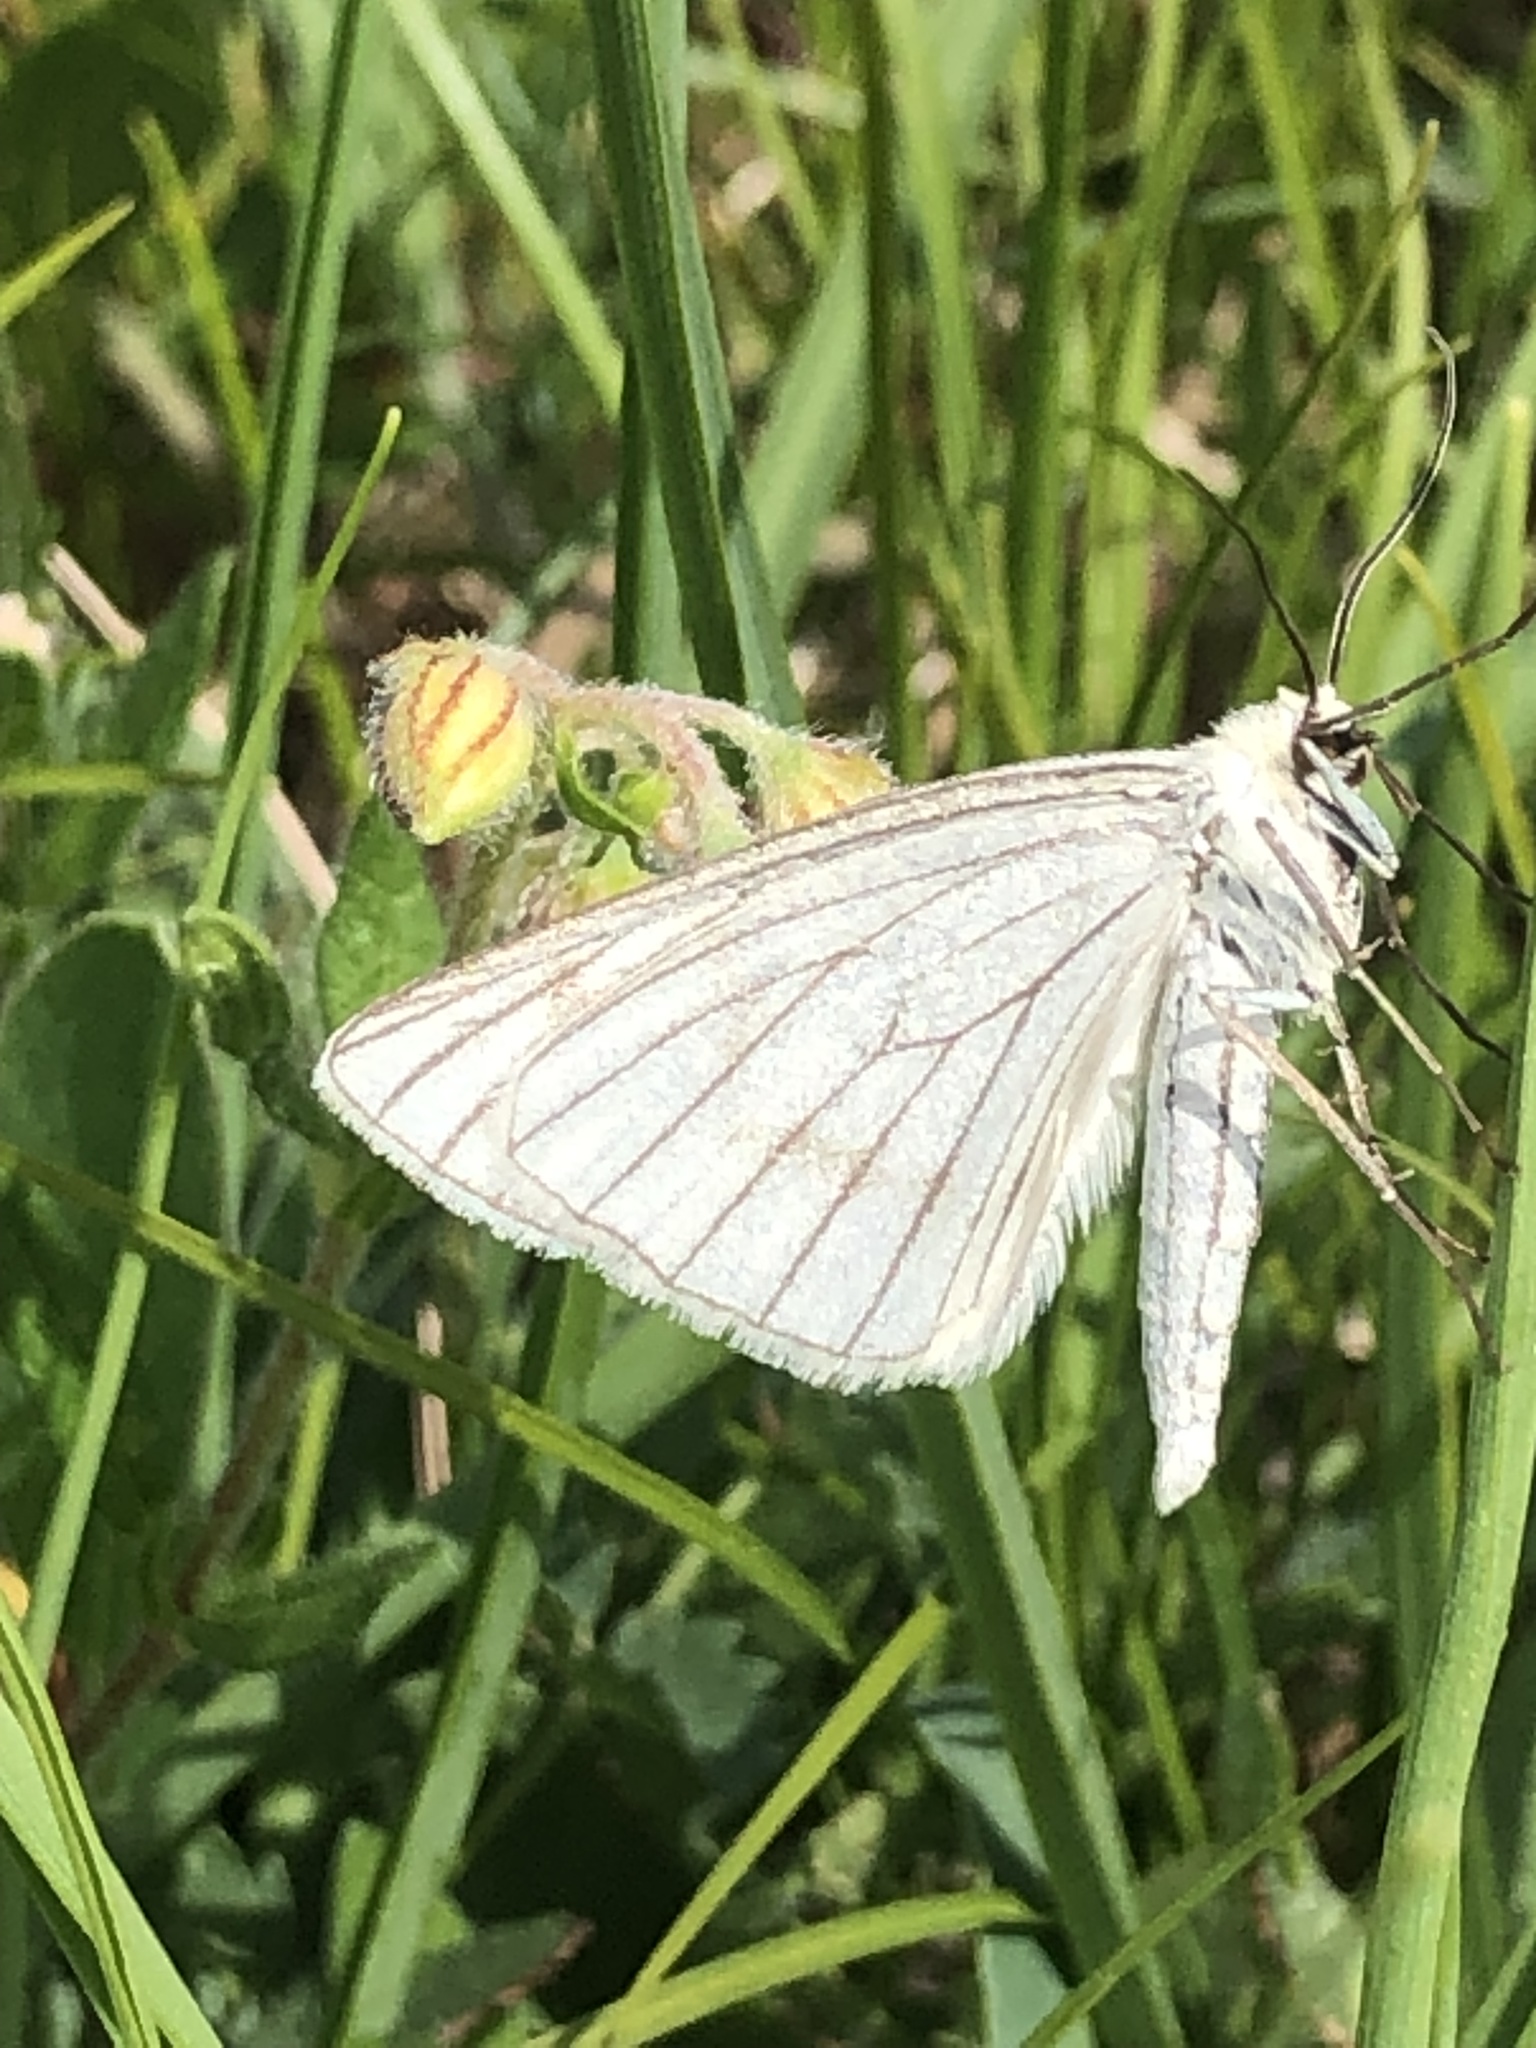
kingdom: Animalia
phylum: Arthropoda
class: Insecta
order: Lepidoptera
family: Geometridae
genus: Siona
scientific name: Siona lineata
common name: Black-veined moth
